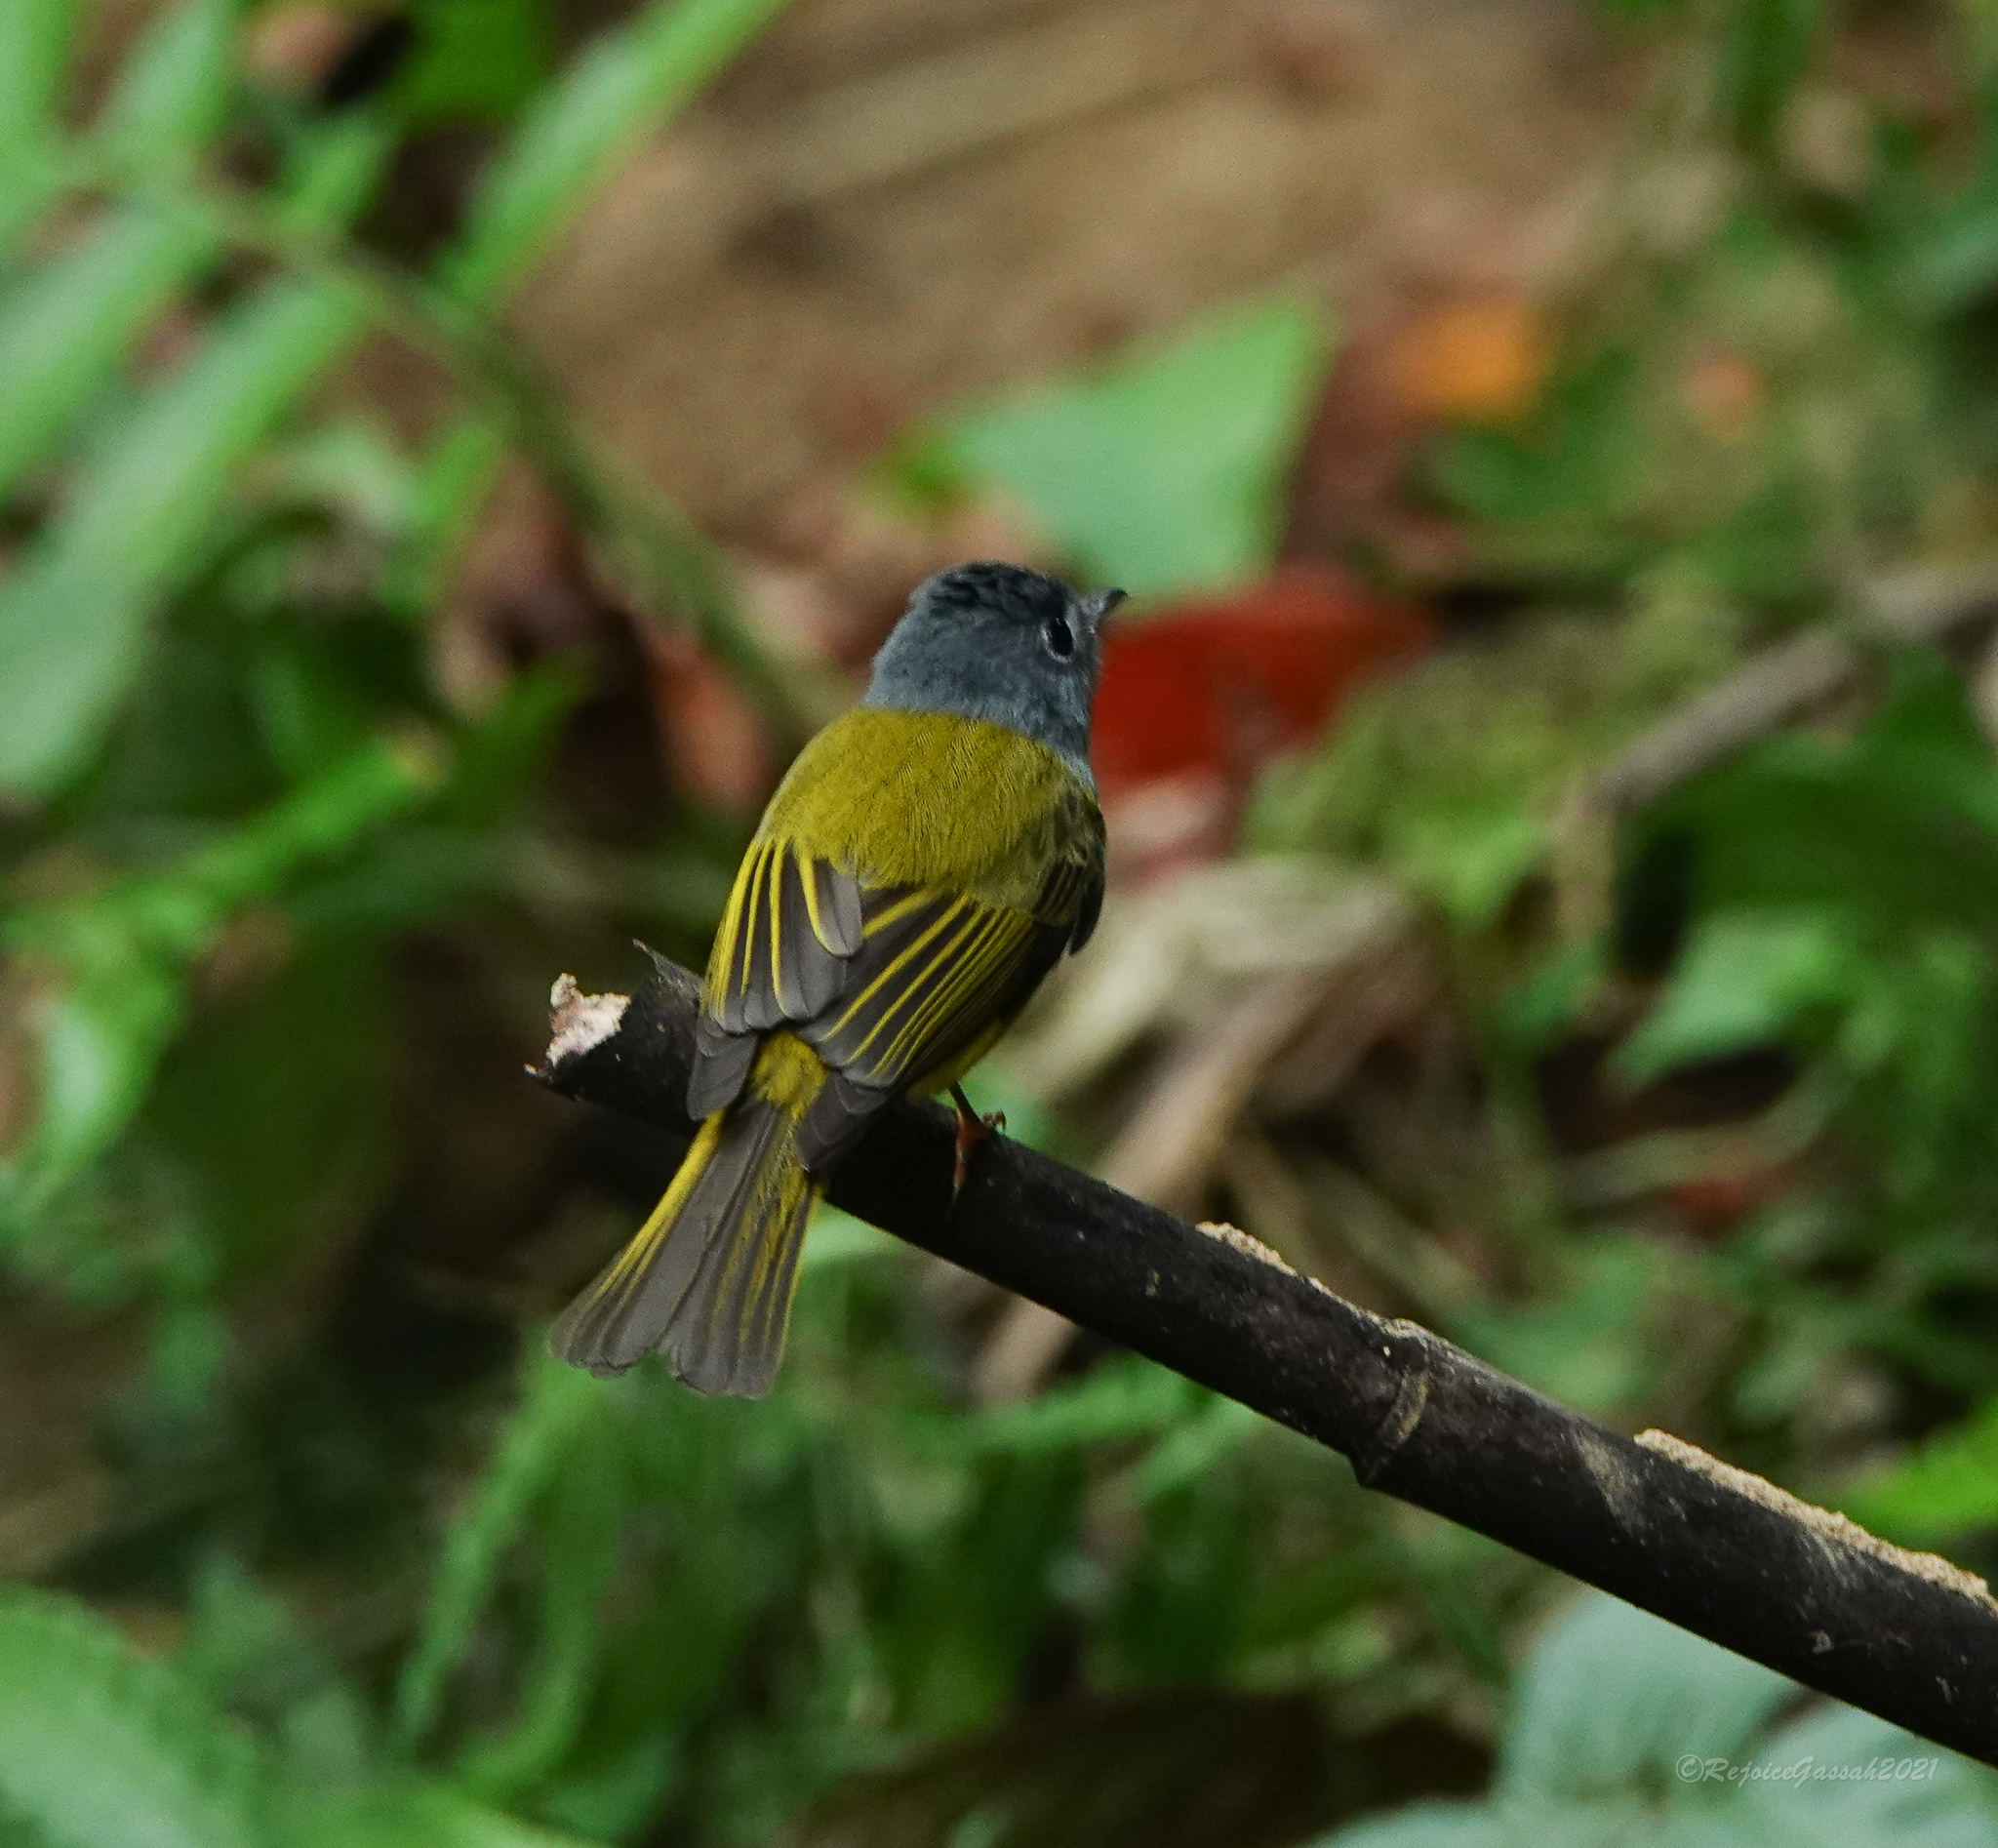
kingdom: Animalia
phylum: Chordata
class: Aves
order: Passeriformes
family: Stenostiridae
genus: Culicicapa
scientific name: Culicicapa ceylonensis
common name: Grey-headed canary-flycatcher
